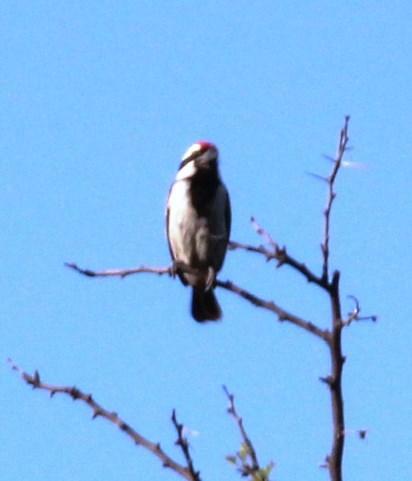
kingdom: Animalia
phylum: Chordata
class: Aves
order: Piciformes
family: Lybiidae
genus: Tricholaema
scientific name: Tricholaema leucomelas
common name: Acacia pied barbet
